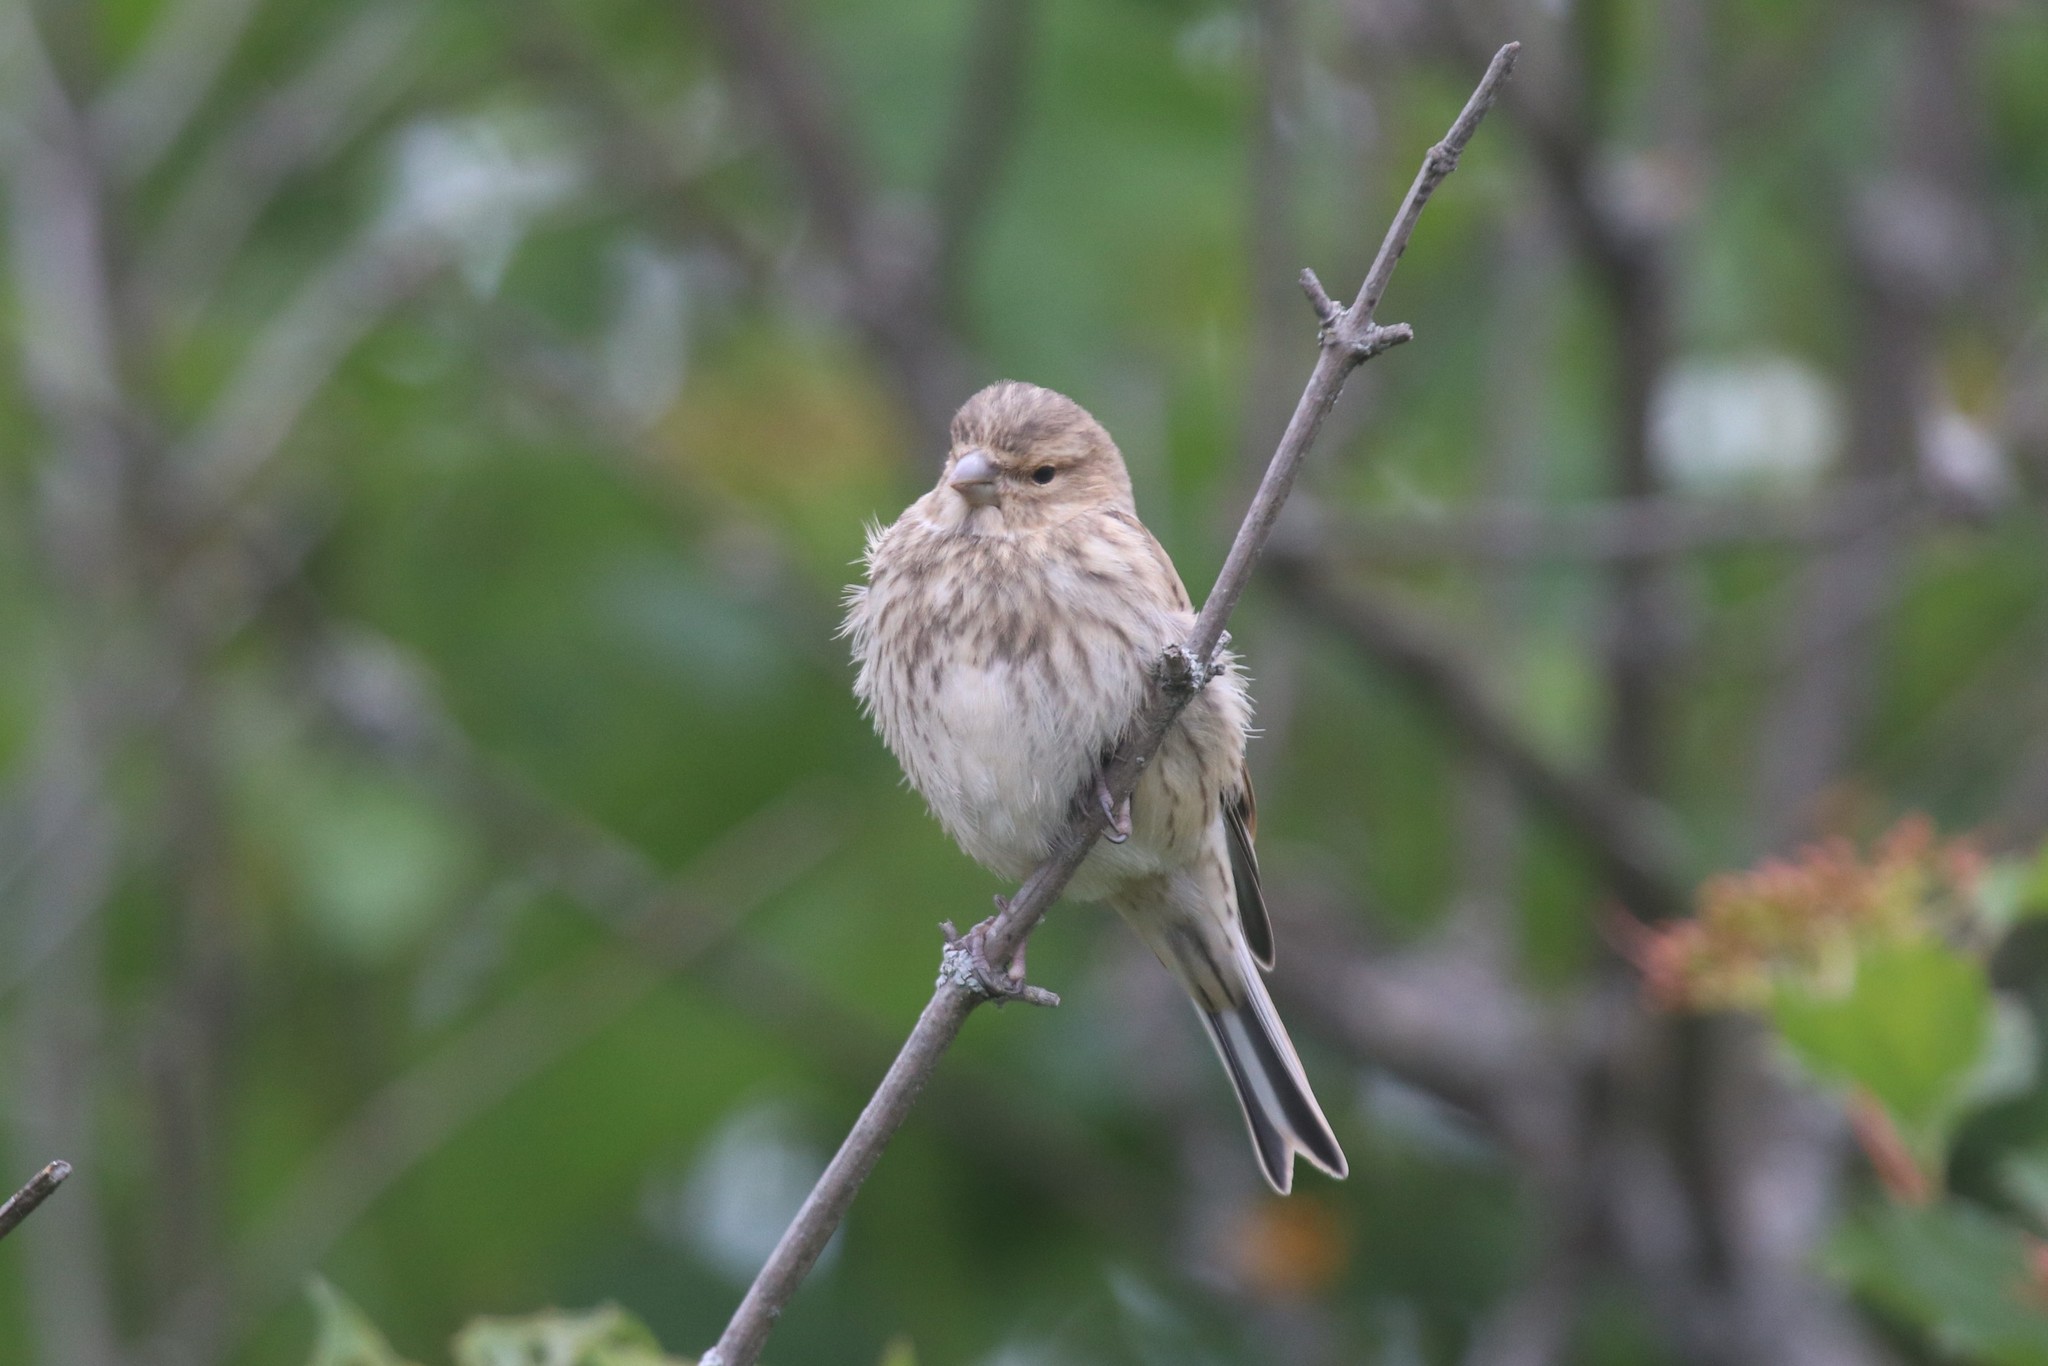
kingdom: Animalia
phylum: Chordata
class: Aves
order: Passeriformes
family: Fringillidae
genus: Linaria
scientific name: Linaria cannabina
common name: Common linnet
